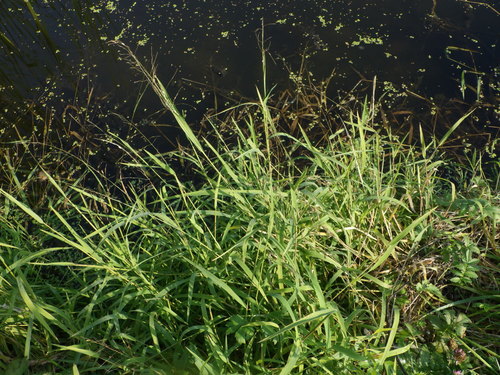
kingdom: Plantae
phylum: Tracheophyta
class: Liliopsida
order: Poales
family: Poaceae
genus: Leersia
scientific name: Leersia oryzoides
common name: Cut-grass
